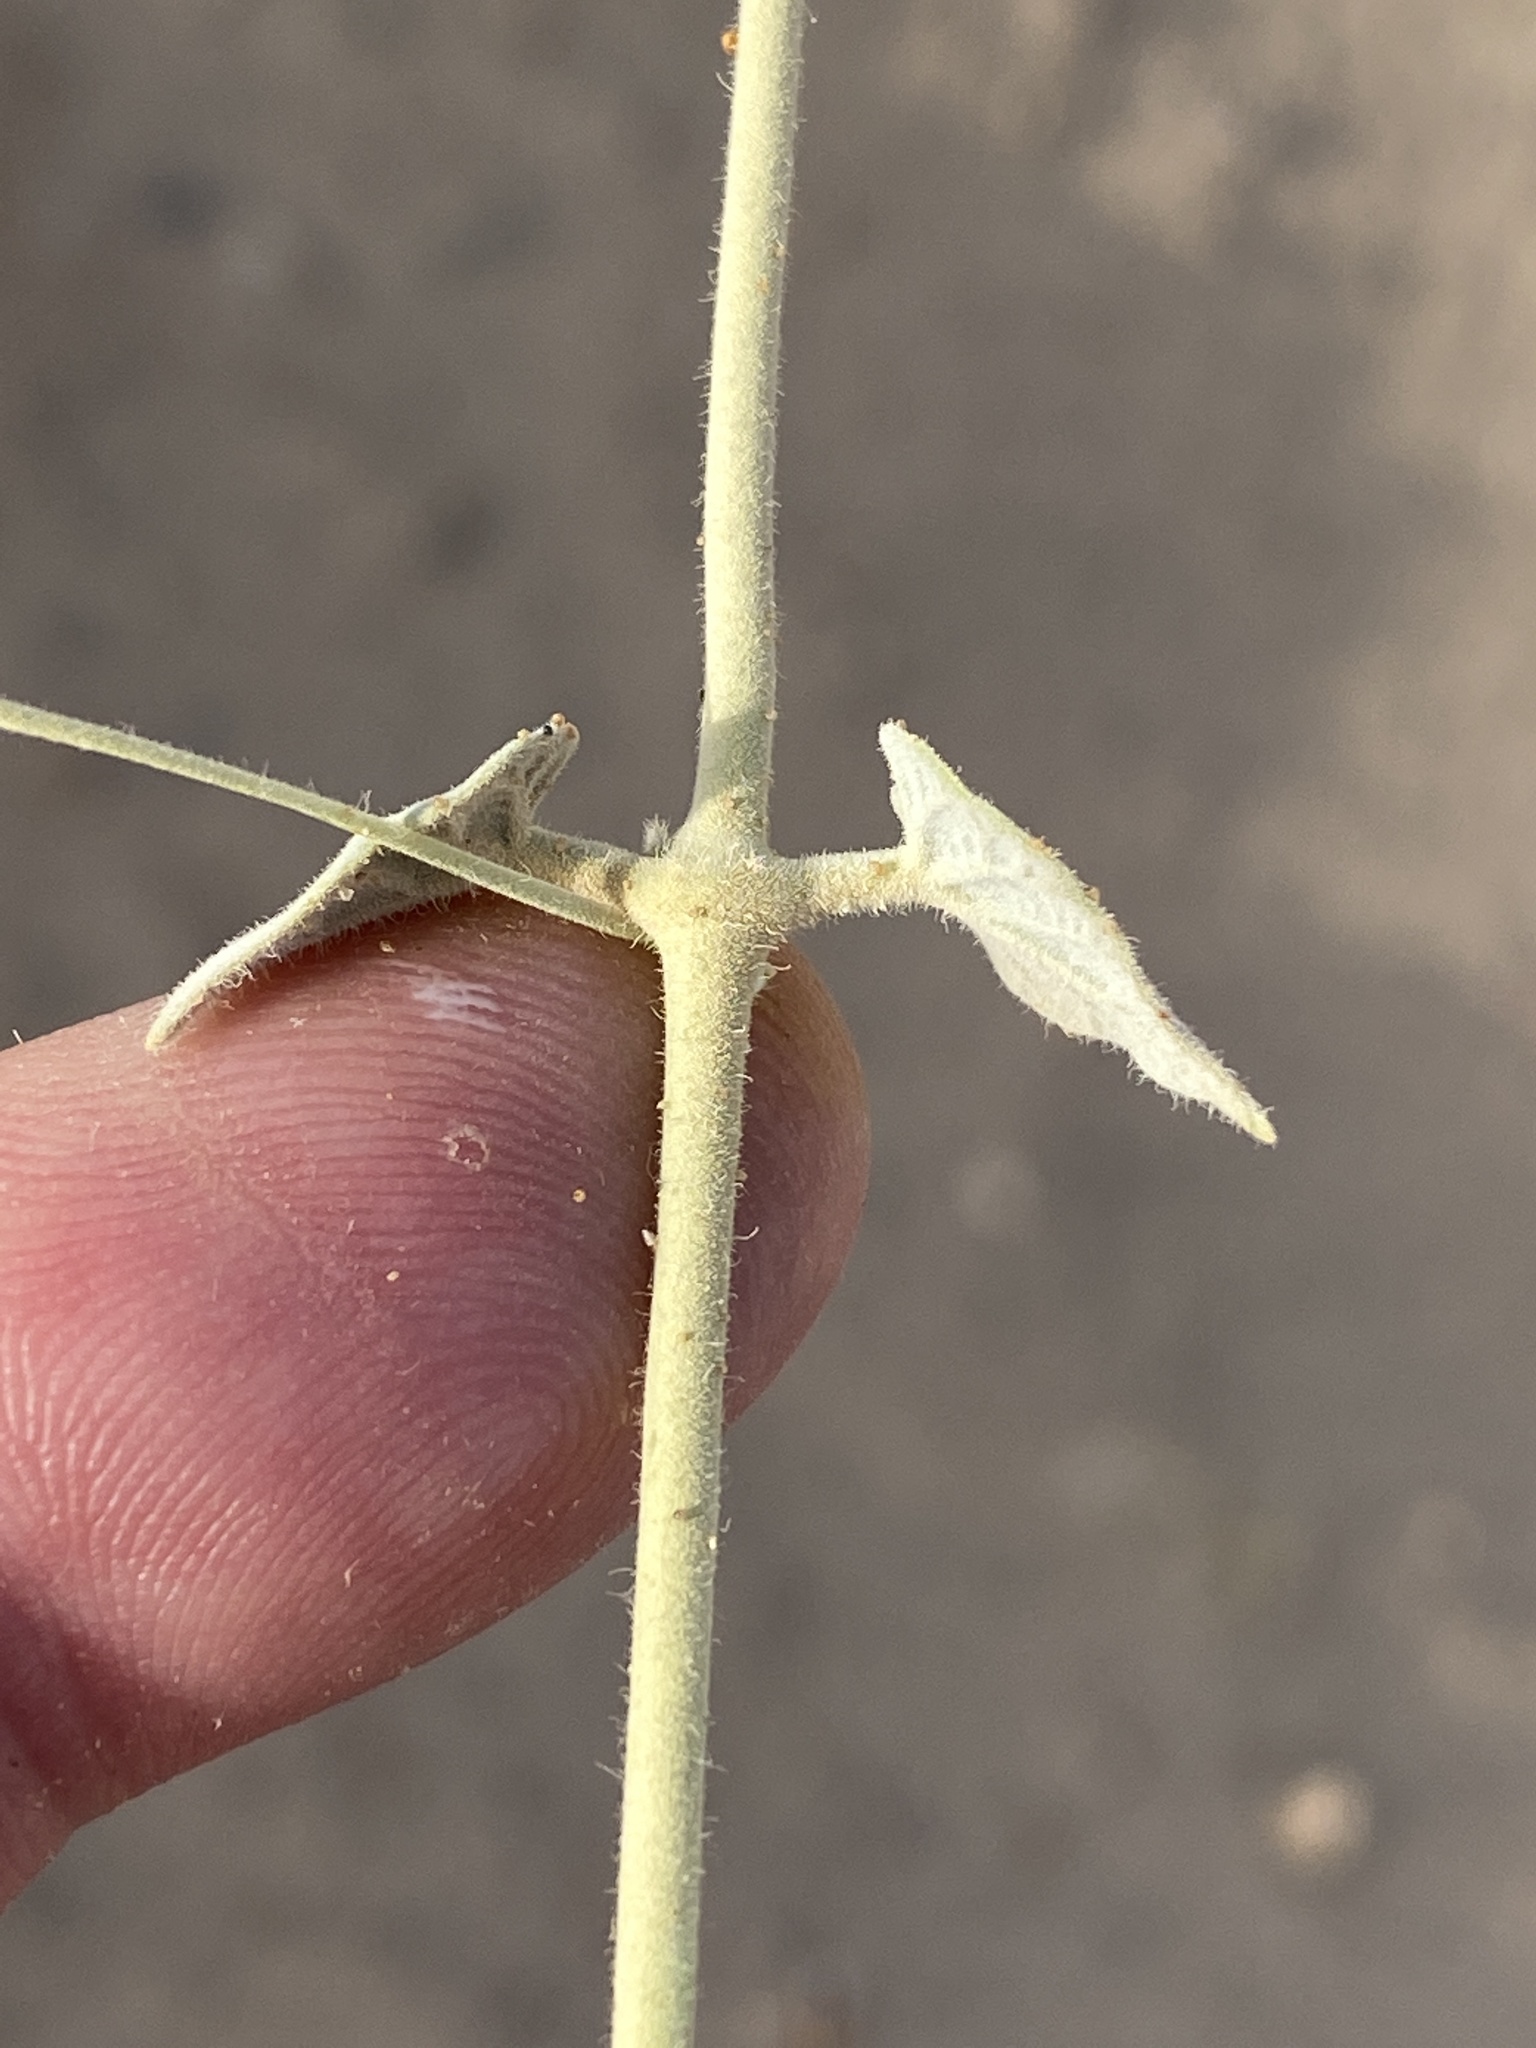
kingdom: Plantae
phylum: Tracheophyta
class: Magnoliopsida
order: Gentianales
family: Apocynaceae
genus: Pergularia
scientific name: Pergularia tomentosa
